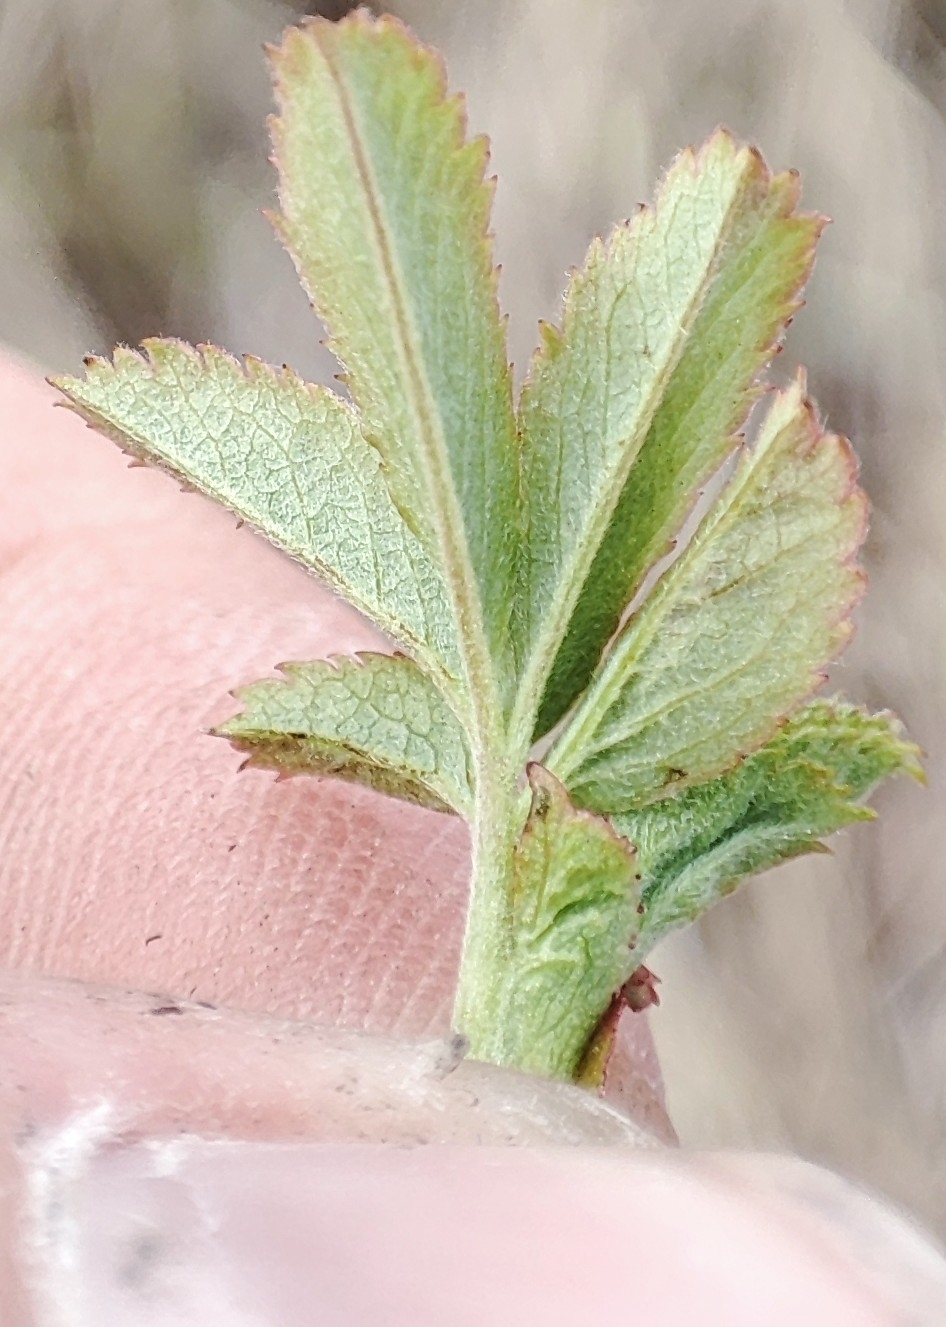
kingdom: Plantae
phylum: Tracheophyta
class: Magnoliopsida
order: Rosales
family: Rosaceae
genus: Rosa
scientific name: Rosa majalis
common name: Cinnamon rose
